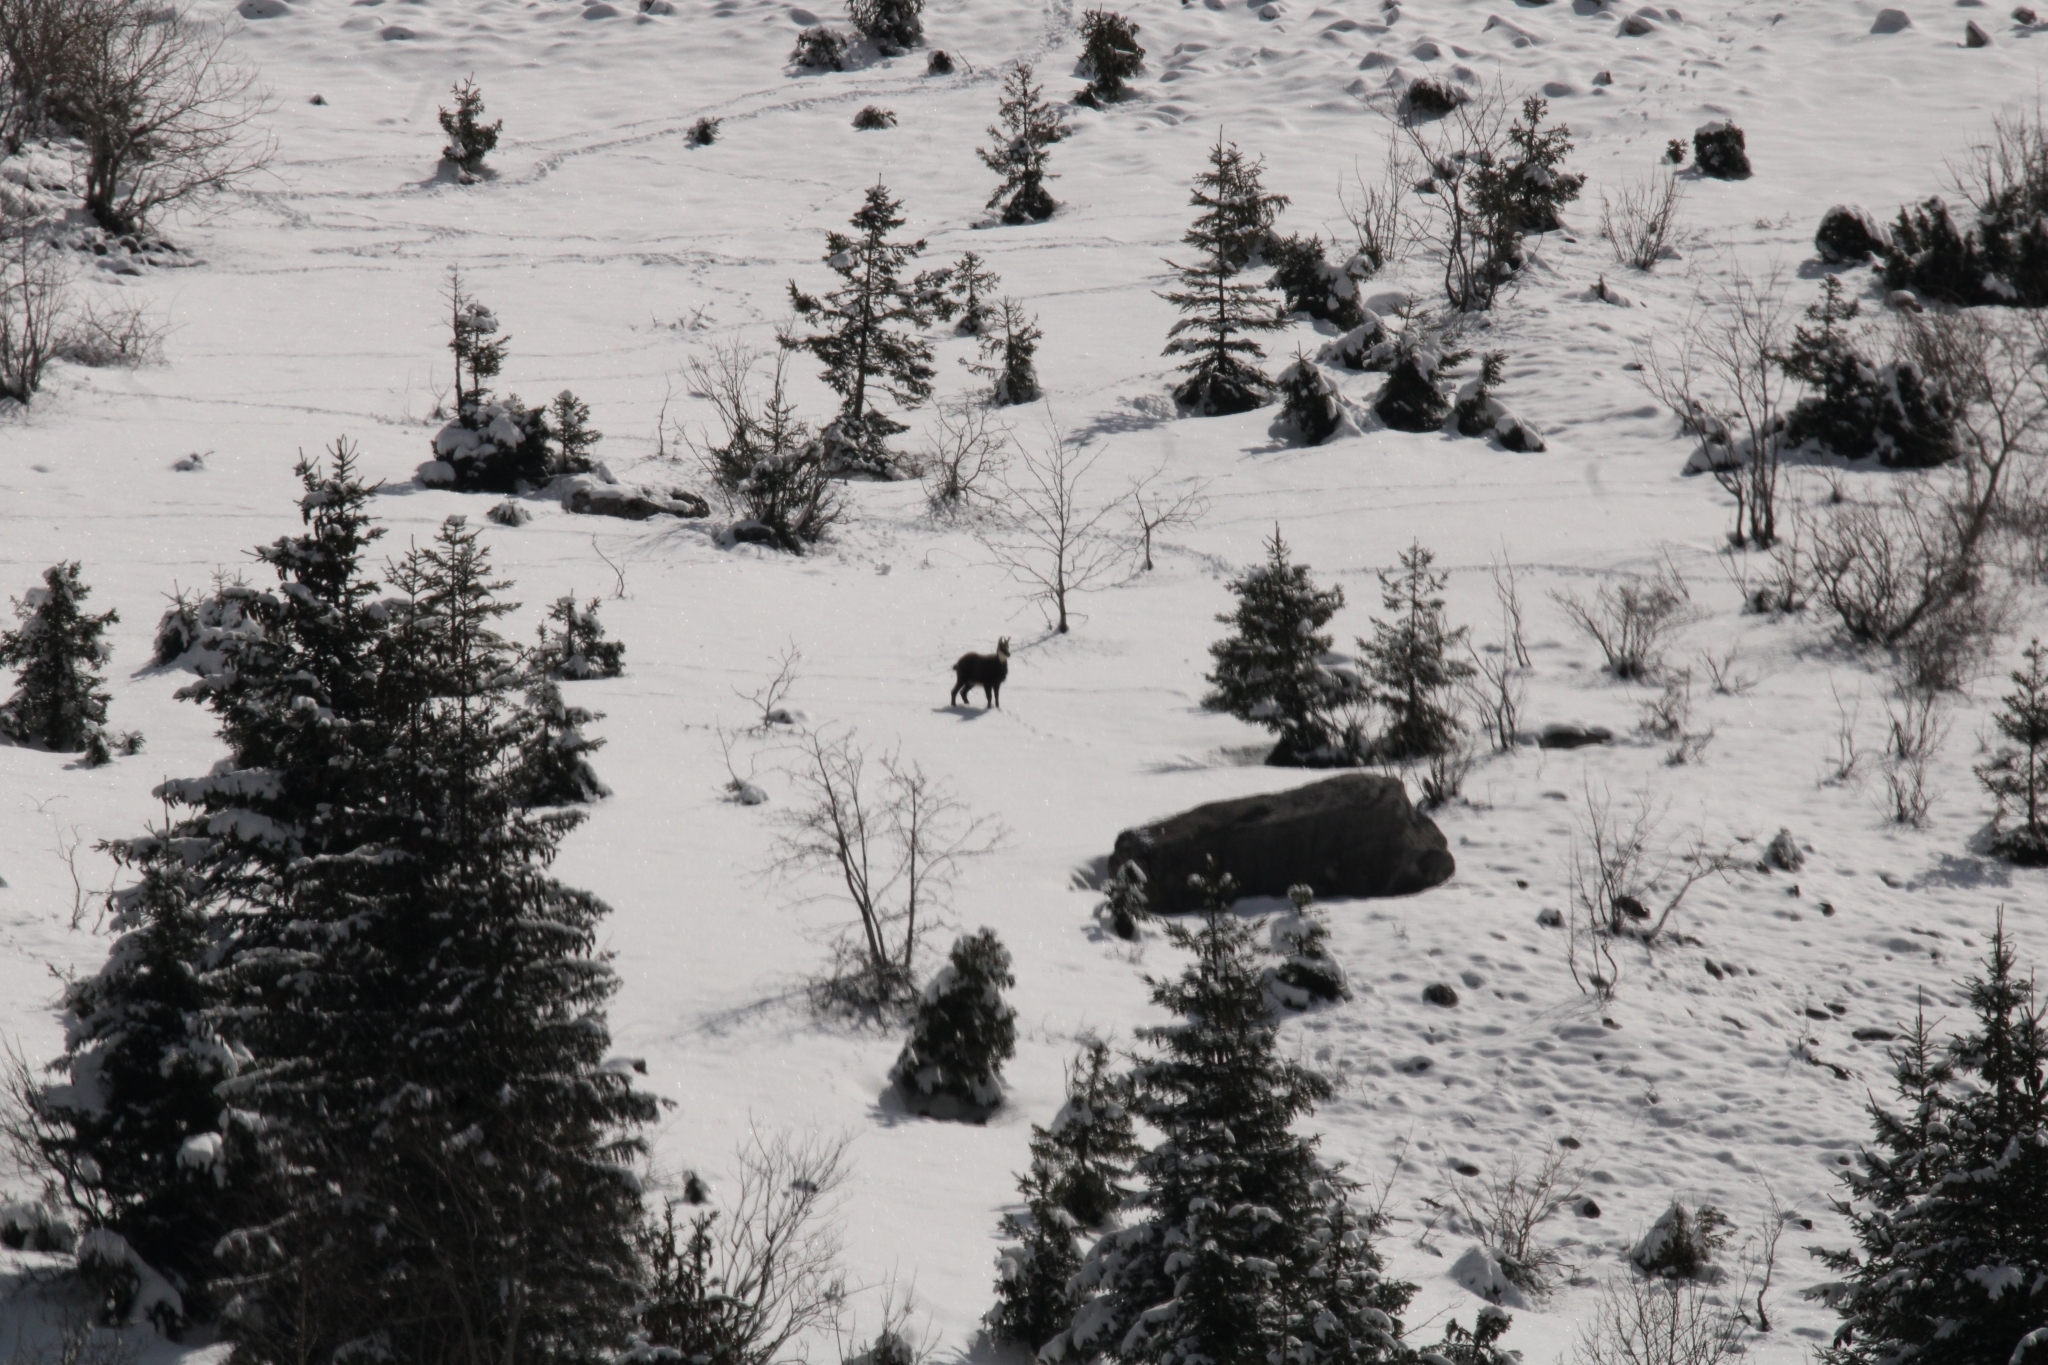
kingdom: Animalia
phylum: Chordata
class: Mammalia
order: Artiodactyla
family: Bovidae
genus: Rupicapra
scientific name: Rupicapra rupicapra
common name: Chamois
